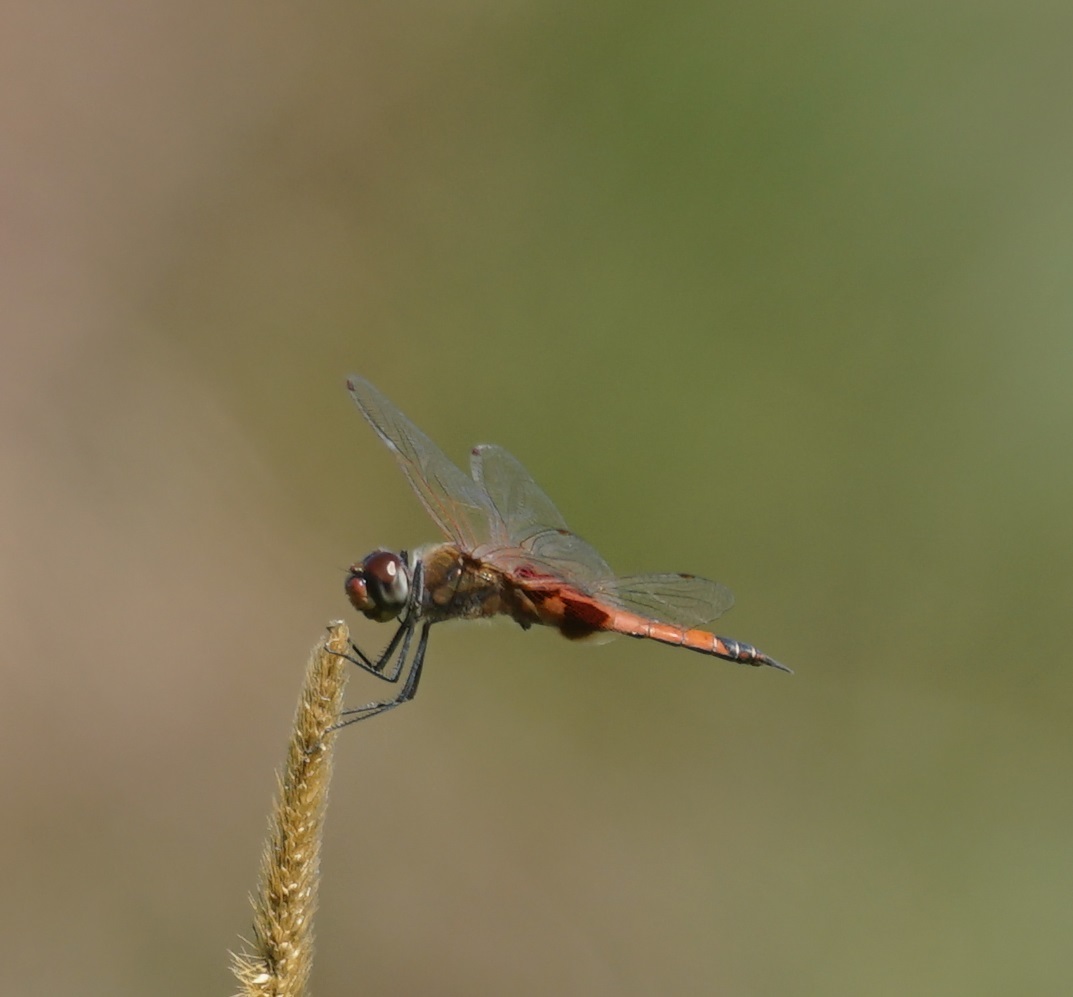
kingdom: Animalia
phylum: Arthropoda
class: Insecta
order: Odonata
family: Libellulidae
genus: Tramea
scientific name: Tramea loewii
